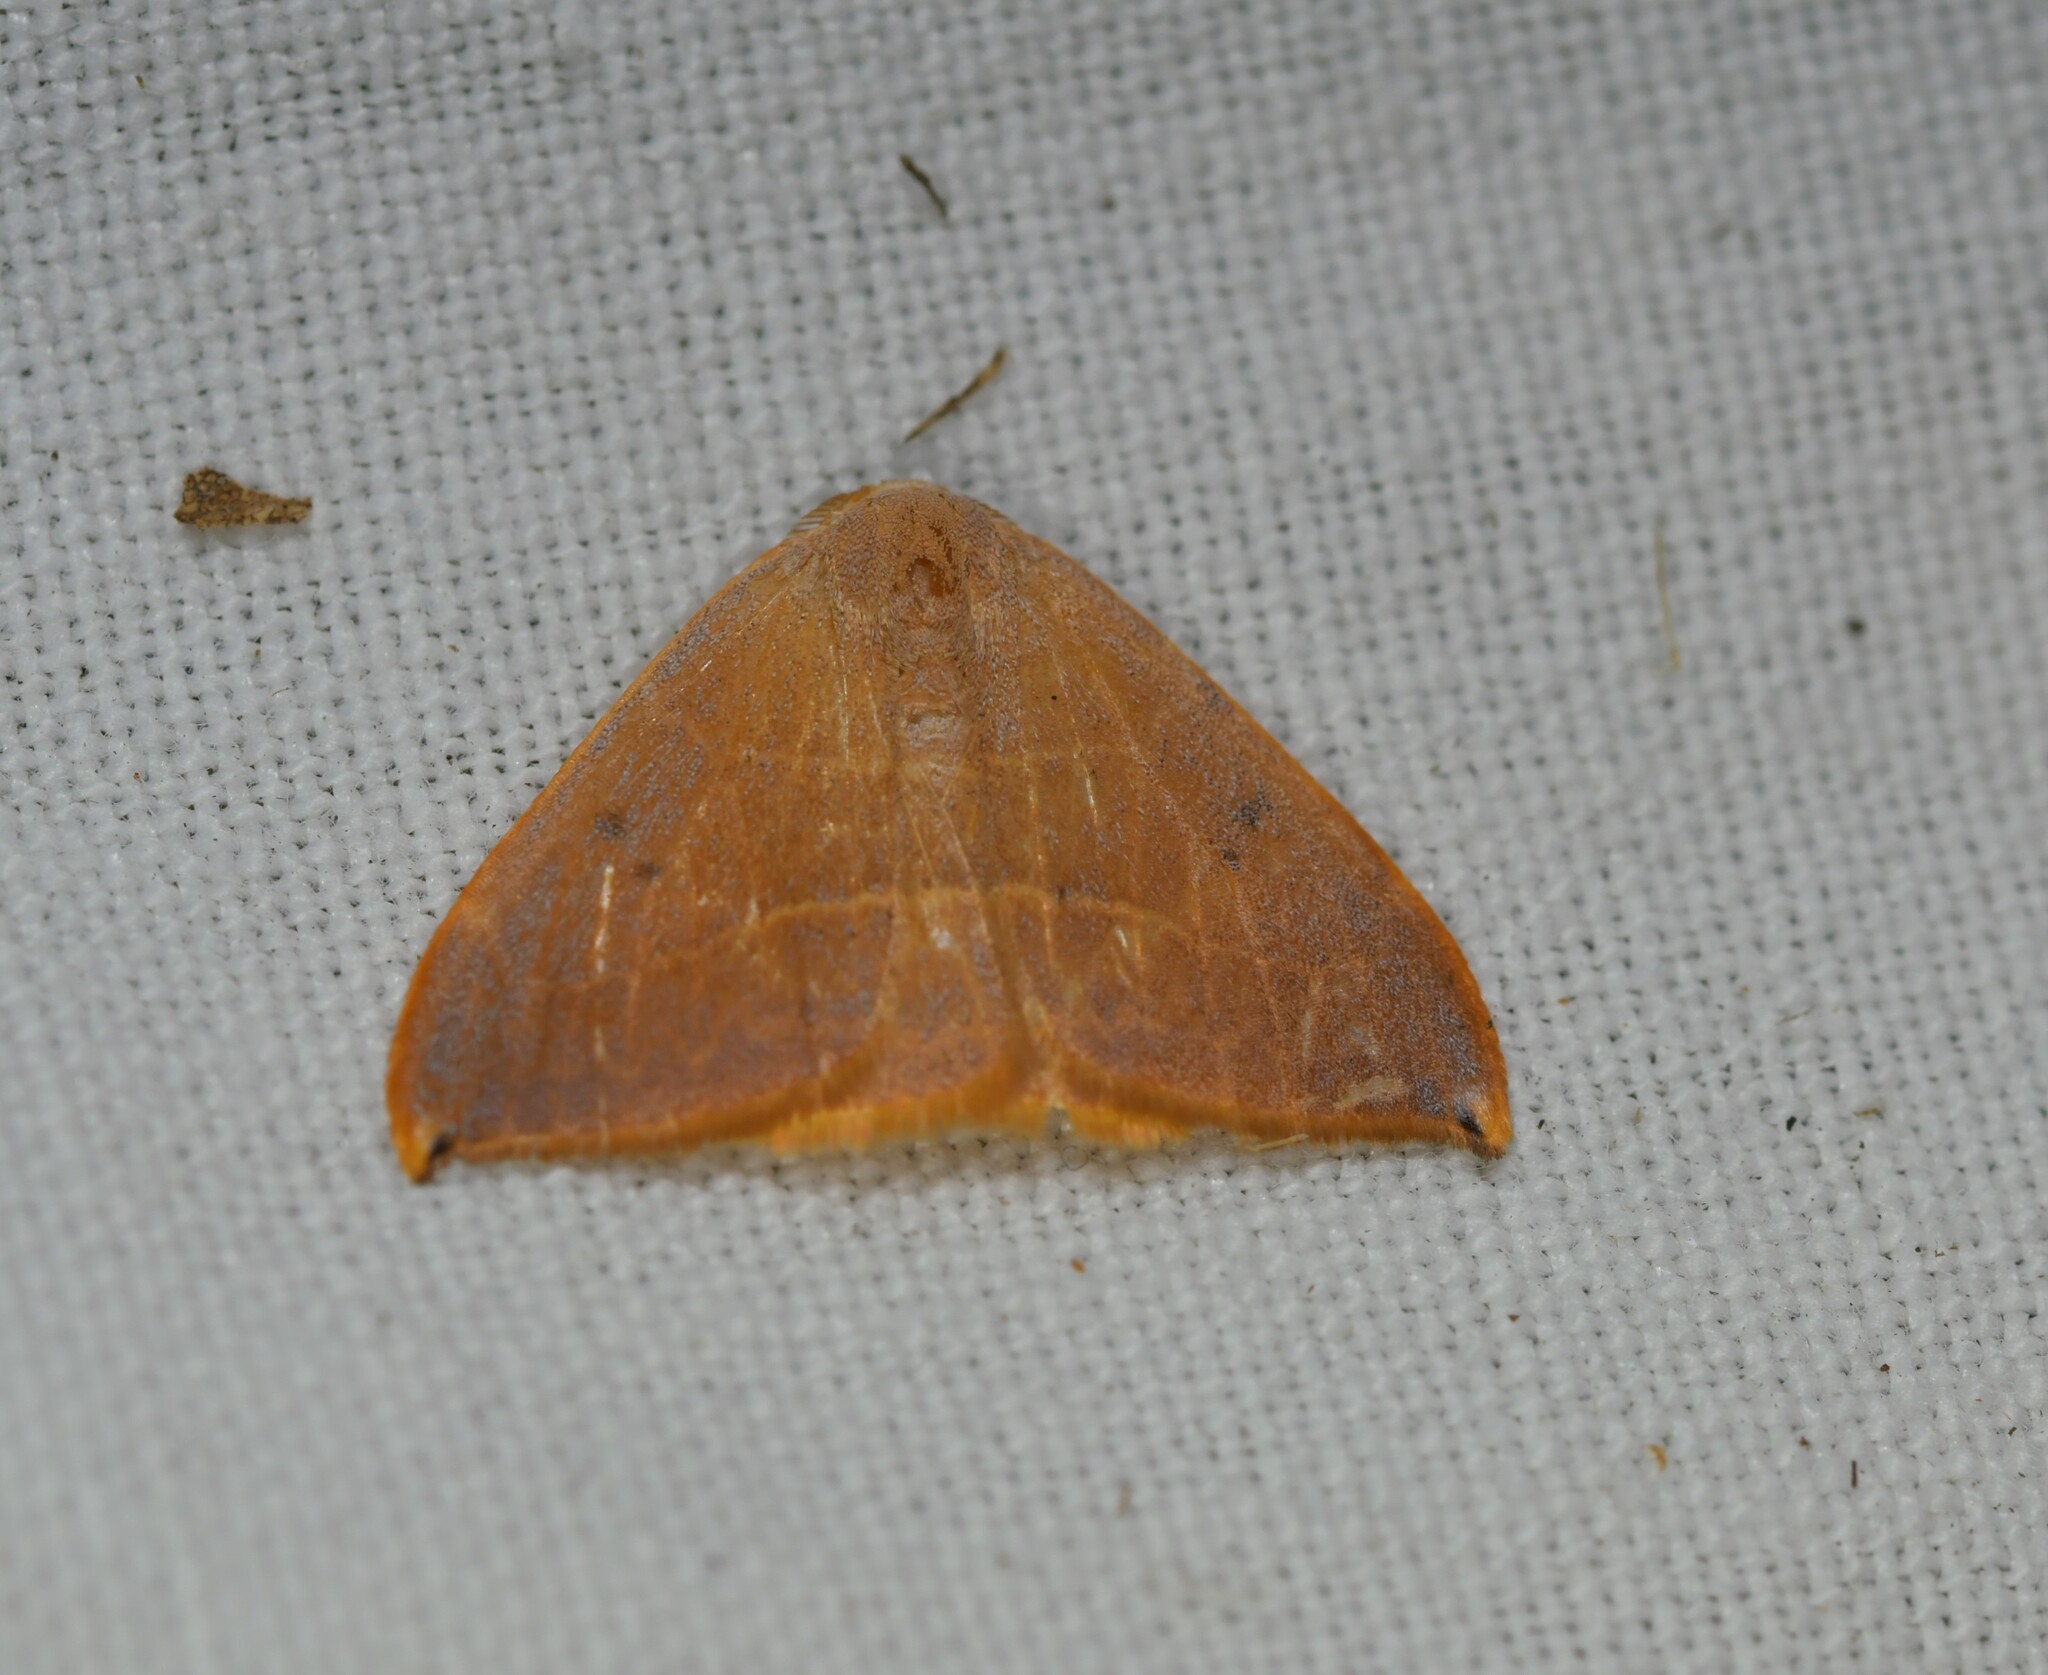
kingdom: Animalia
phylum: Arthropoda
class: Insecta
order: Lepidoptera
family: Drepanidae
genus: Watsonalla
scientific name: Watsonalla uncinula
